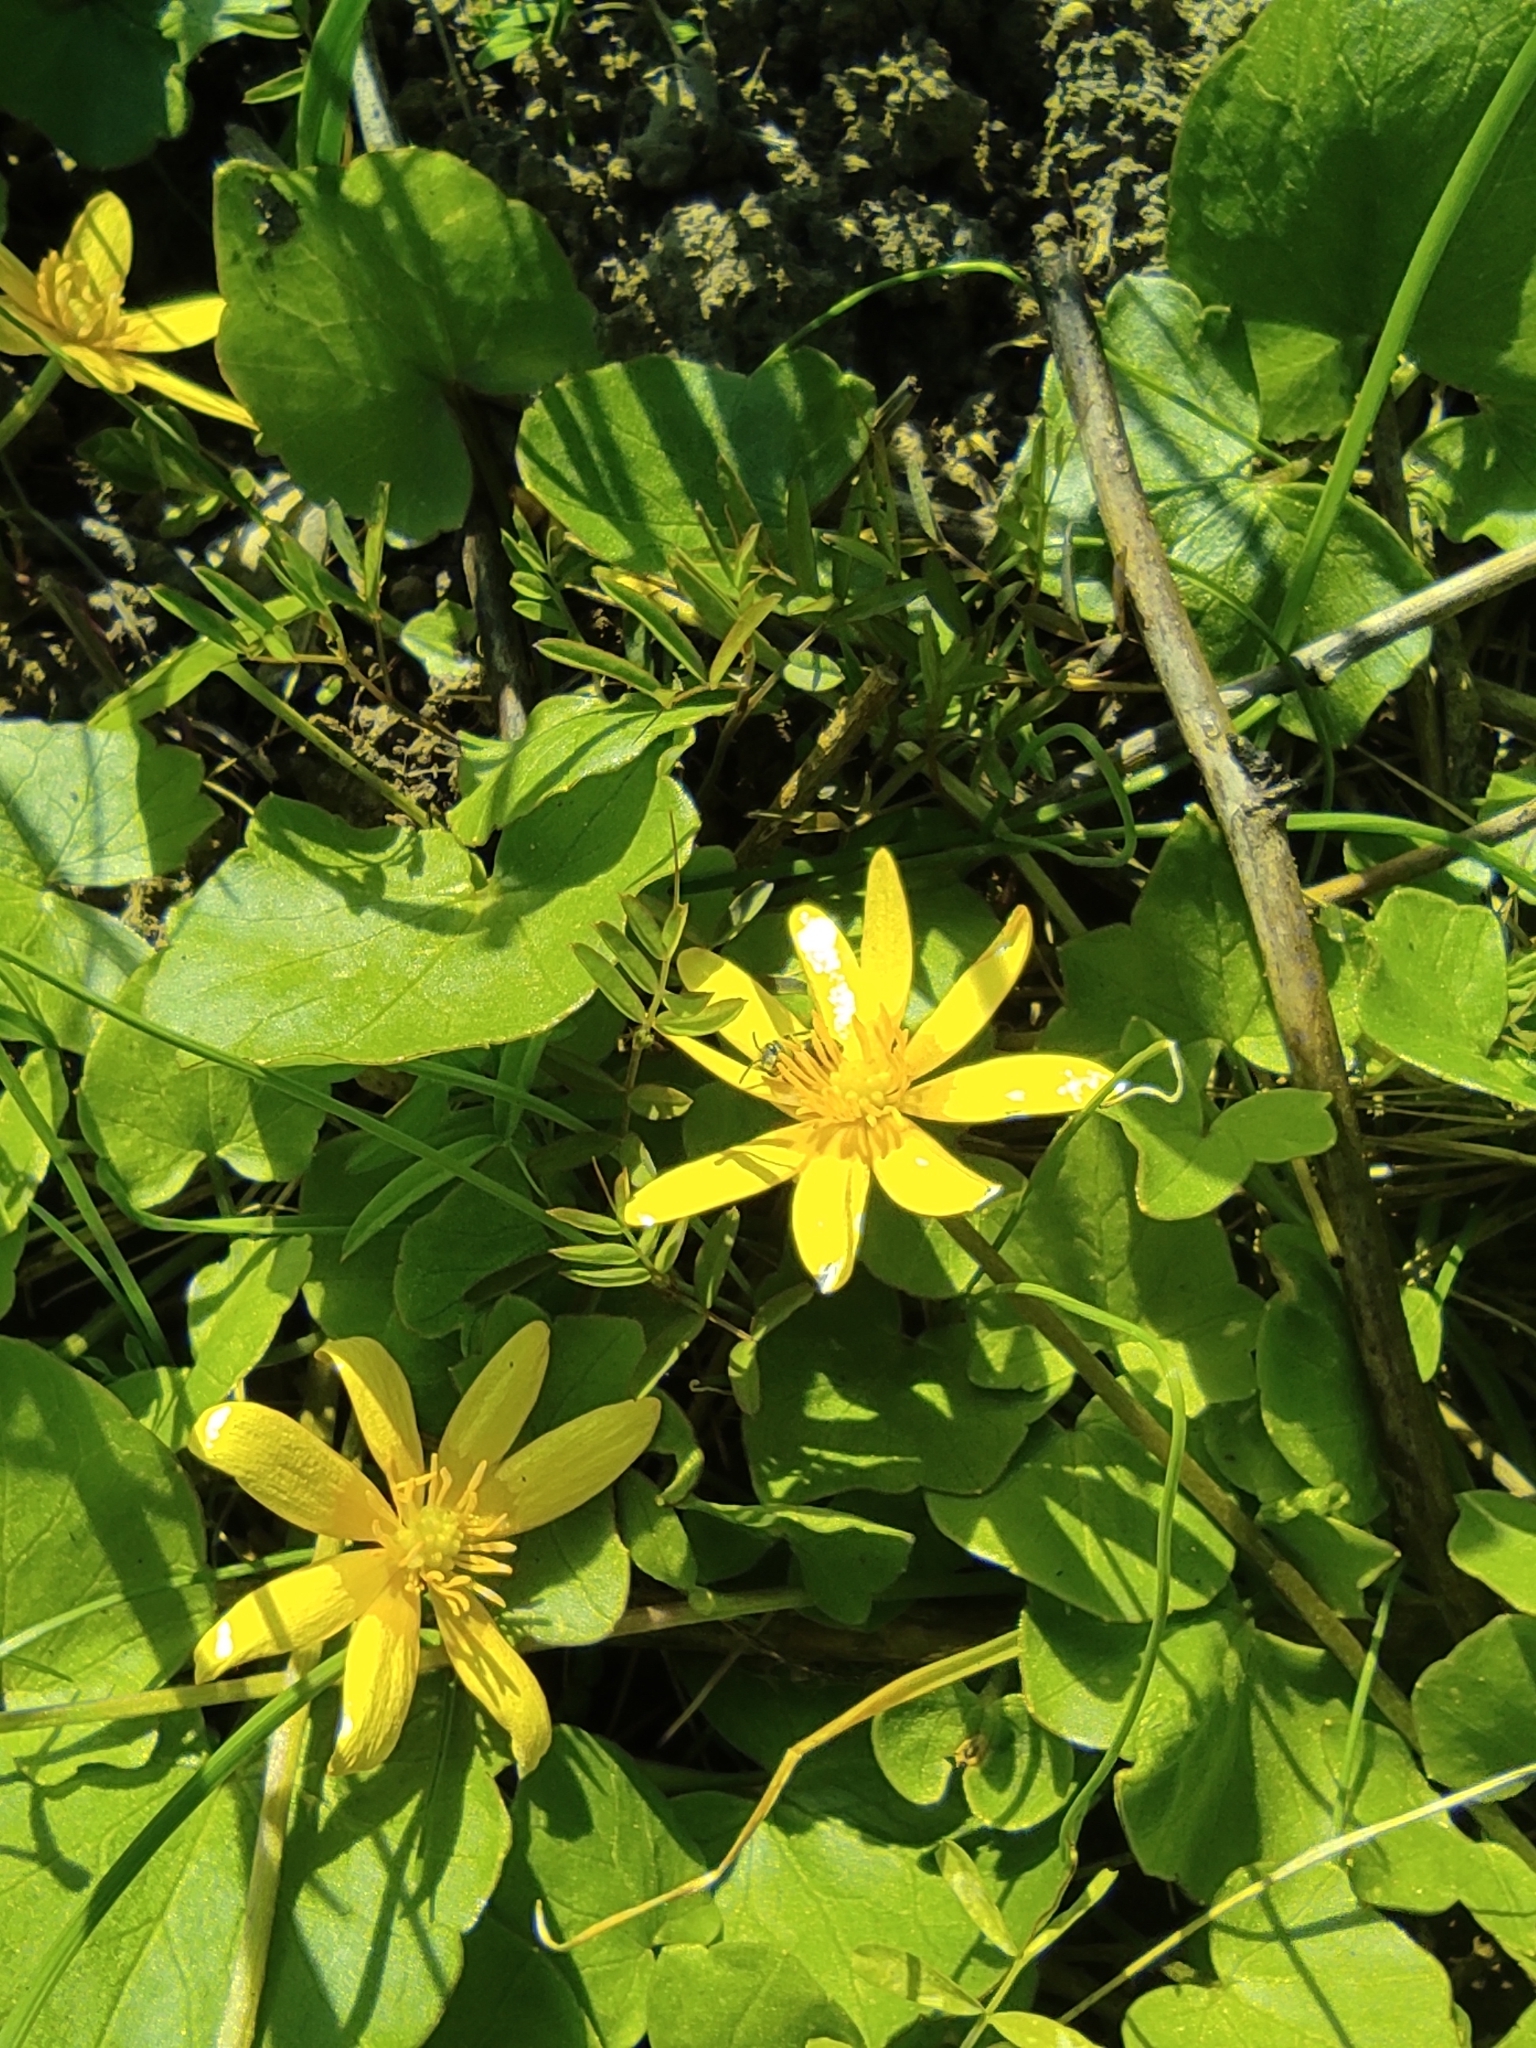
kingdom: Plantae
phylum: Tracheophyta
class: Magnoliopsida
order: Ranunculales
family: Ranunculaceae
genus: Ficaria
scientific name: Ficaria verna
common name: Lesser celandine
